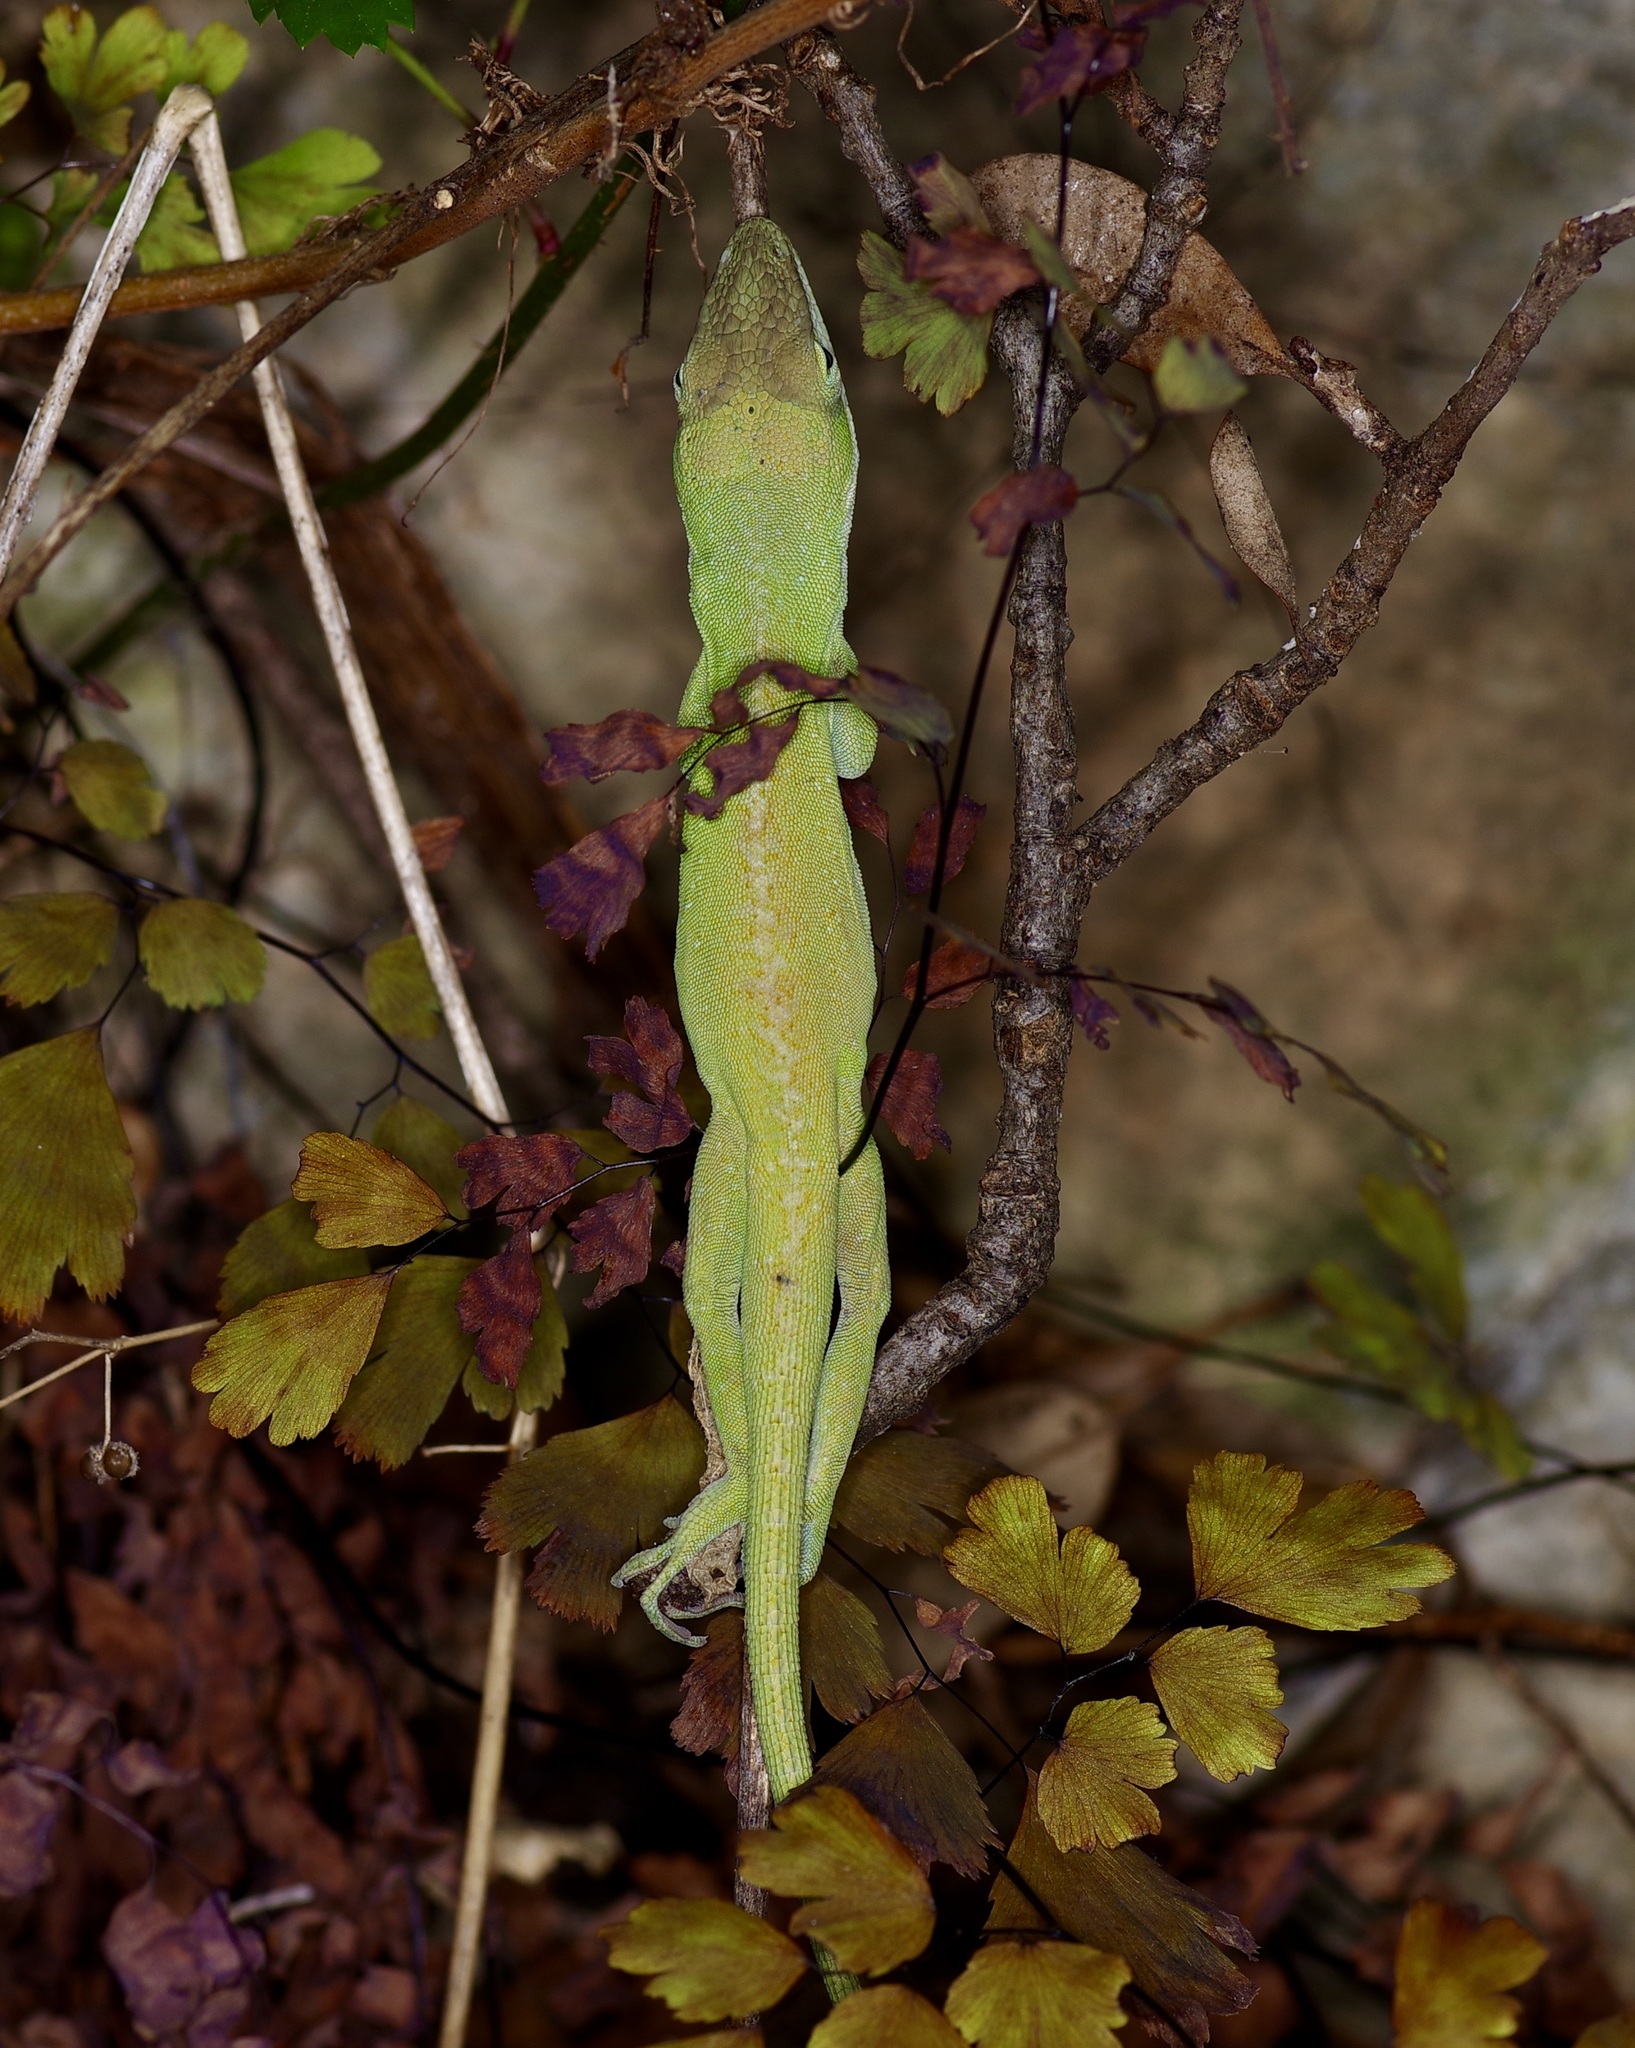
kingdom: Animalia
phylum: Chordata
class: Squamata
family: Dactyloidae
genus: Anolis
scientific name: Anolis carolinensis
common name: Green anole
